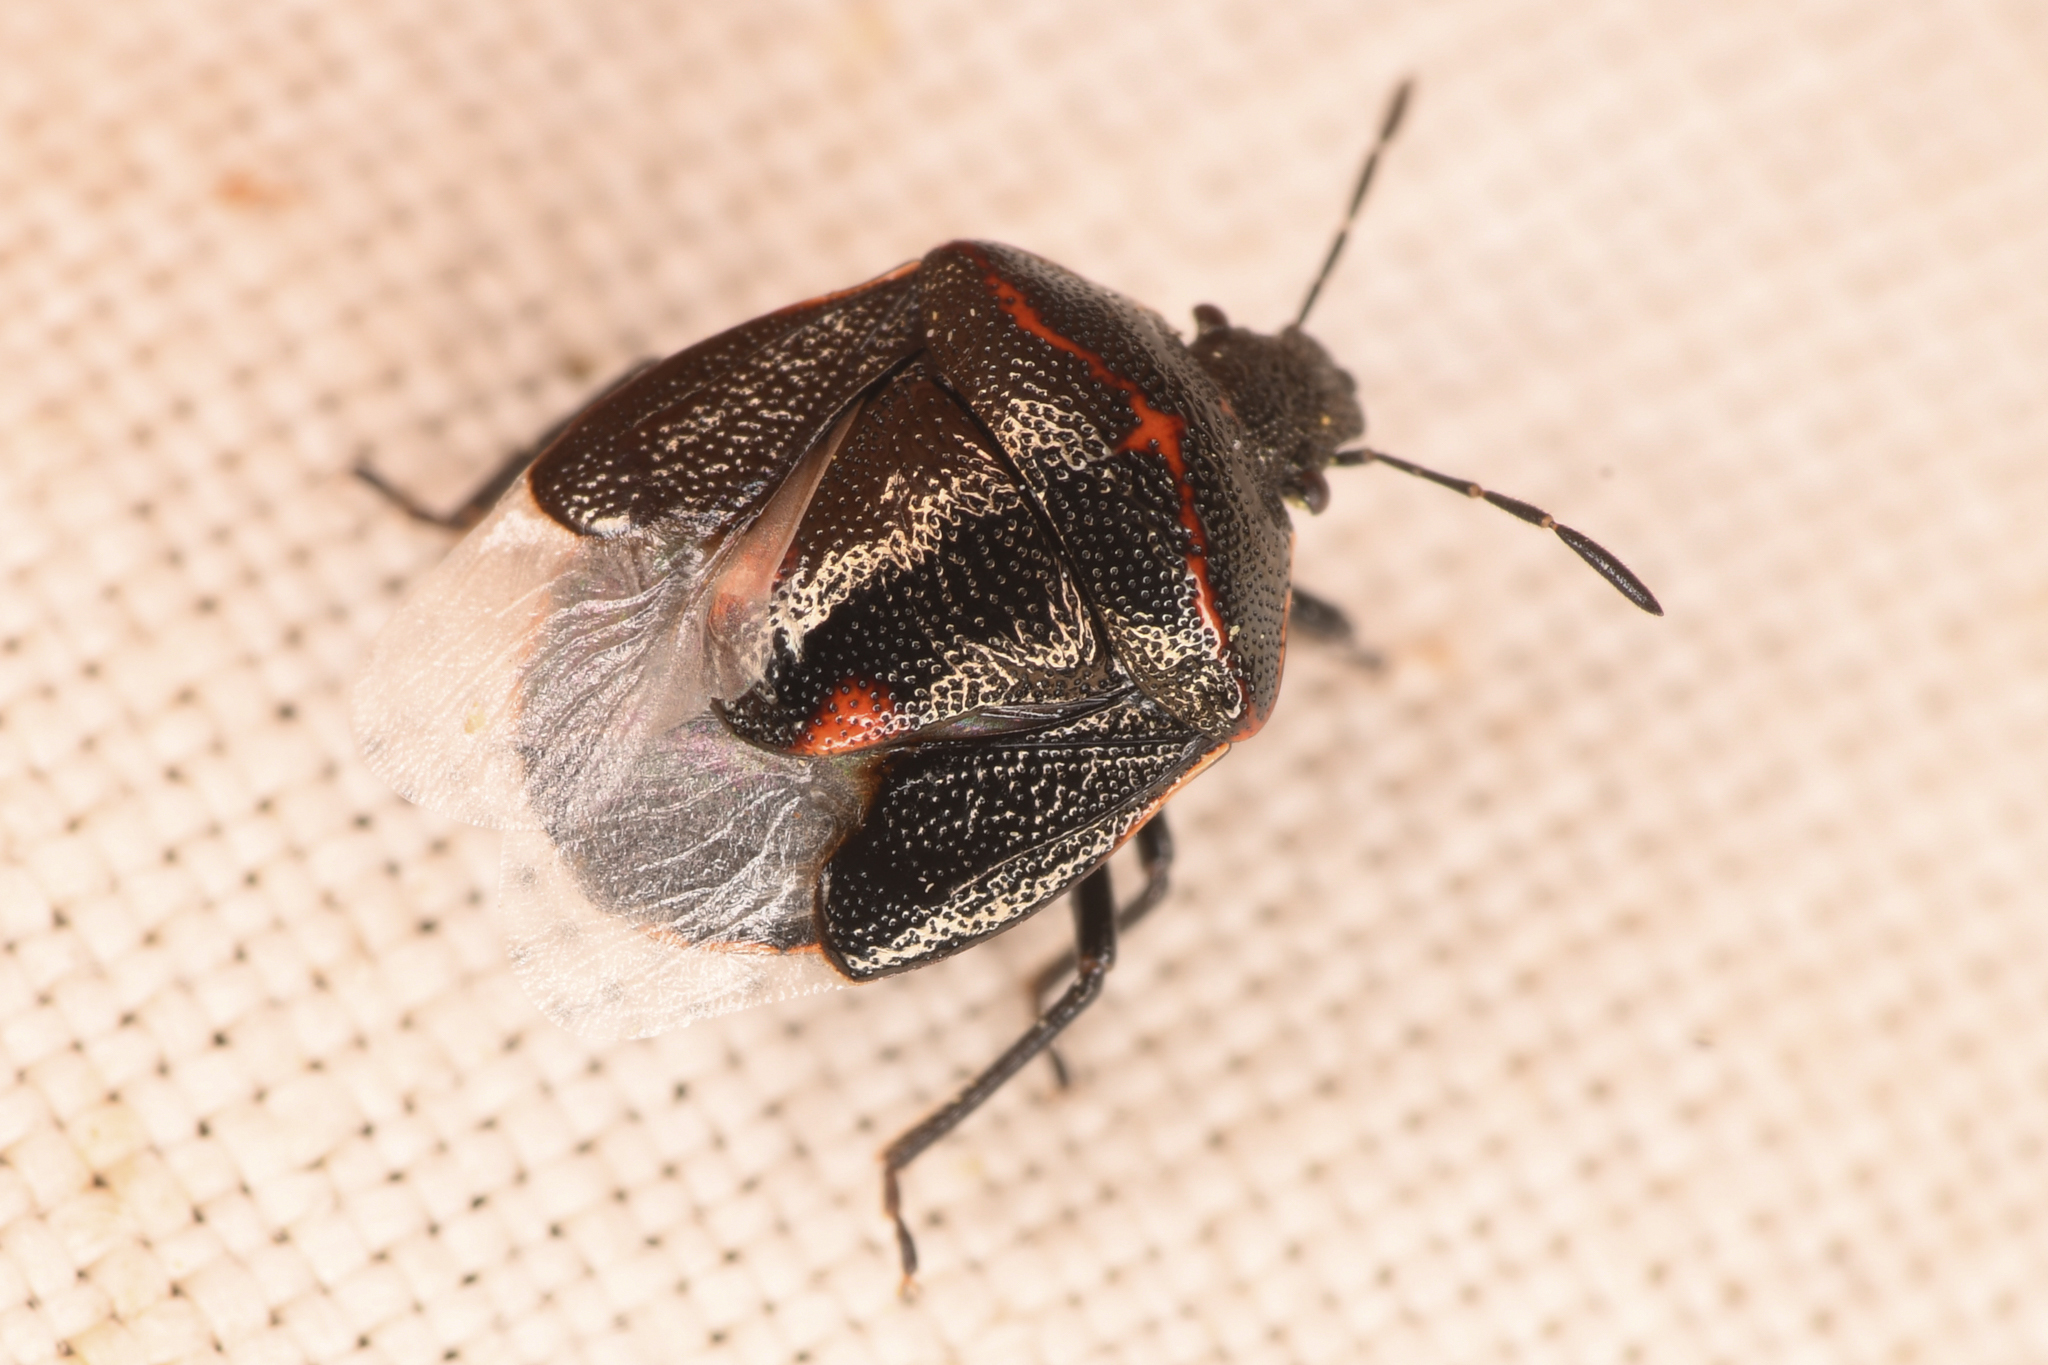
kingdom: Animalia
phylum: Arthropoda
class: Insecta
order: Hemiptera
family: Pentatomidae
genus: Cosmopepla
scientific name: Cosmopepla lintneriana
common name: Twice-stabbed stink bug
